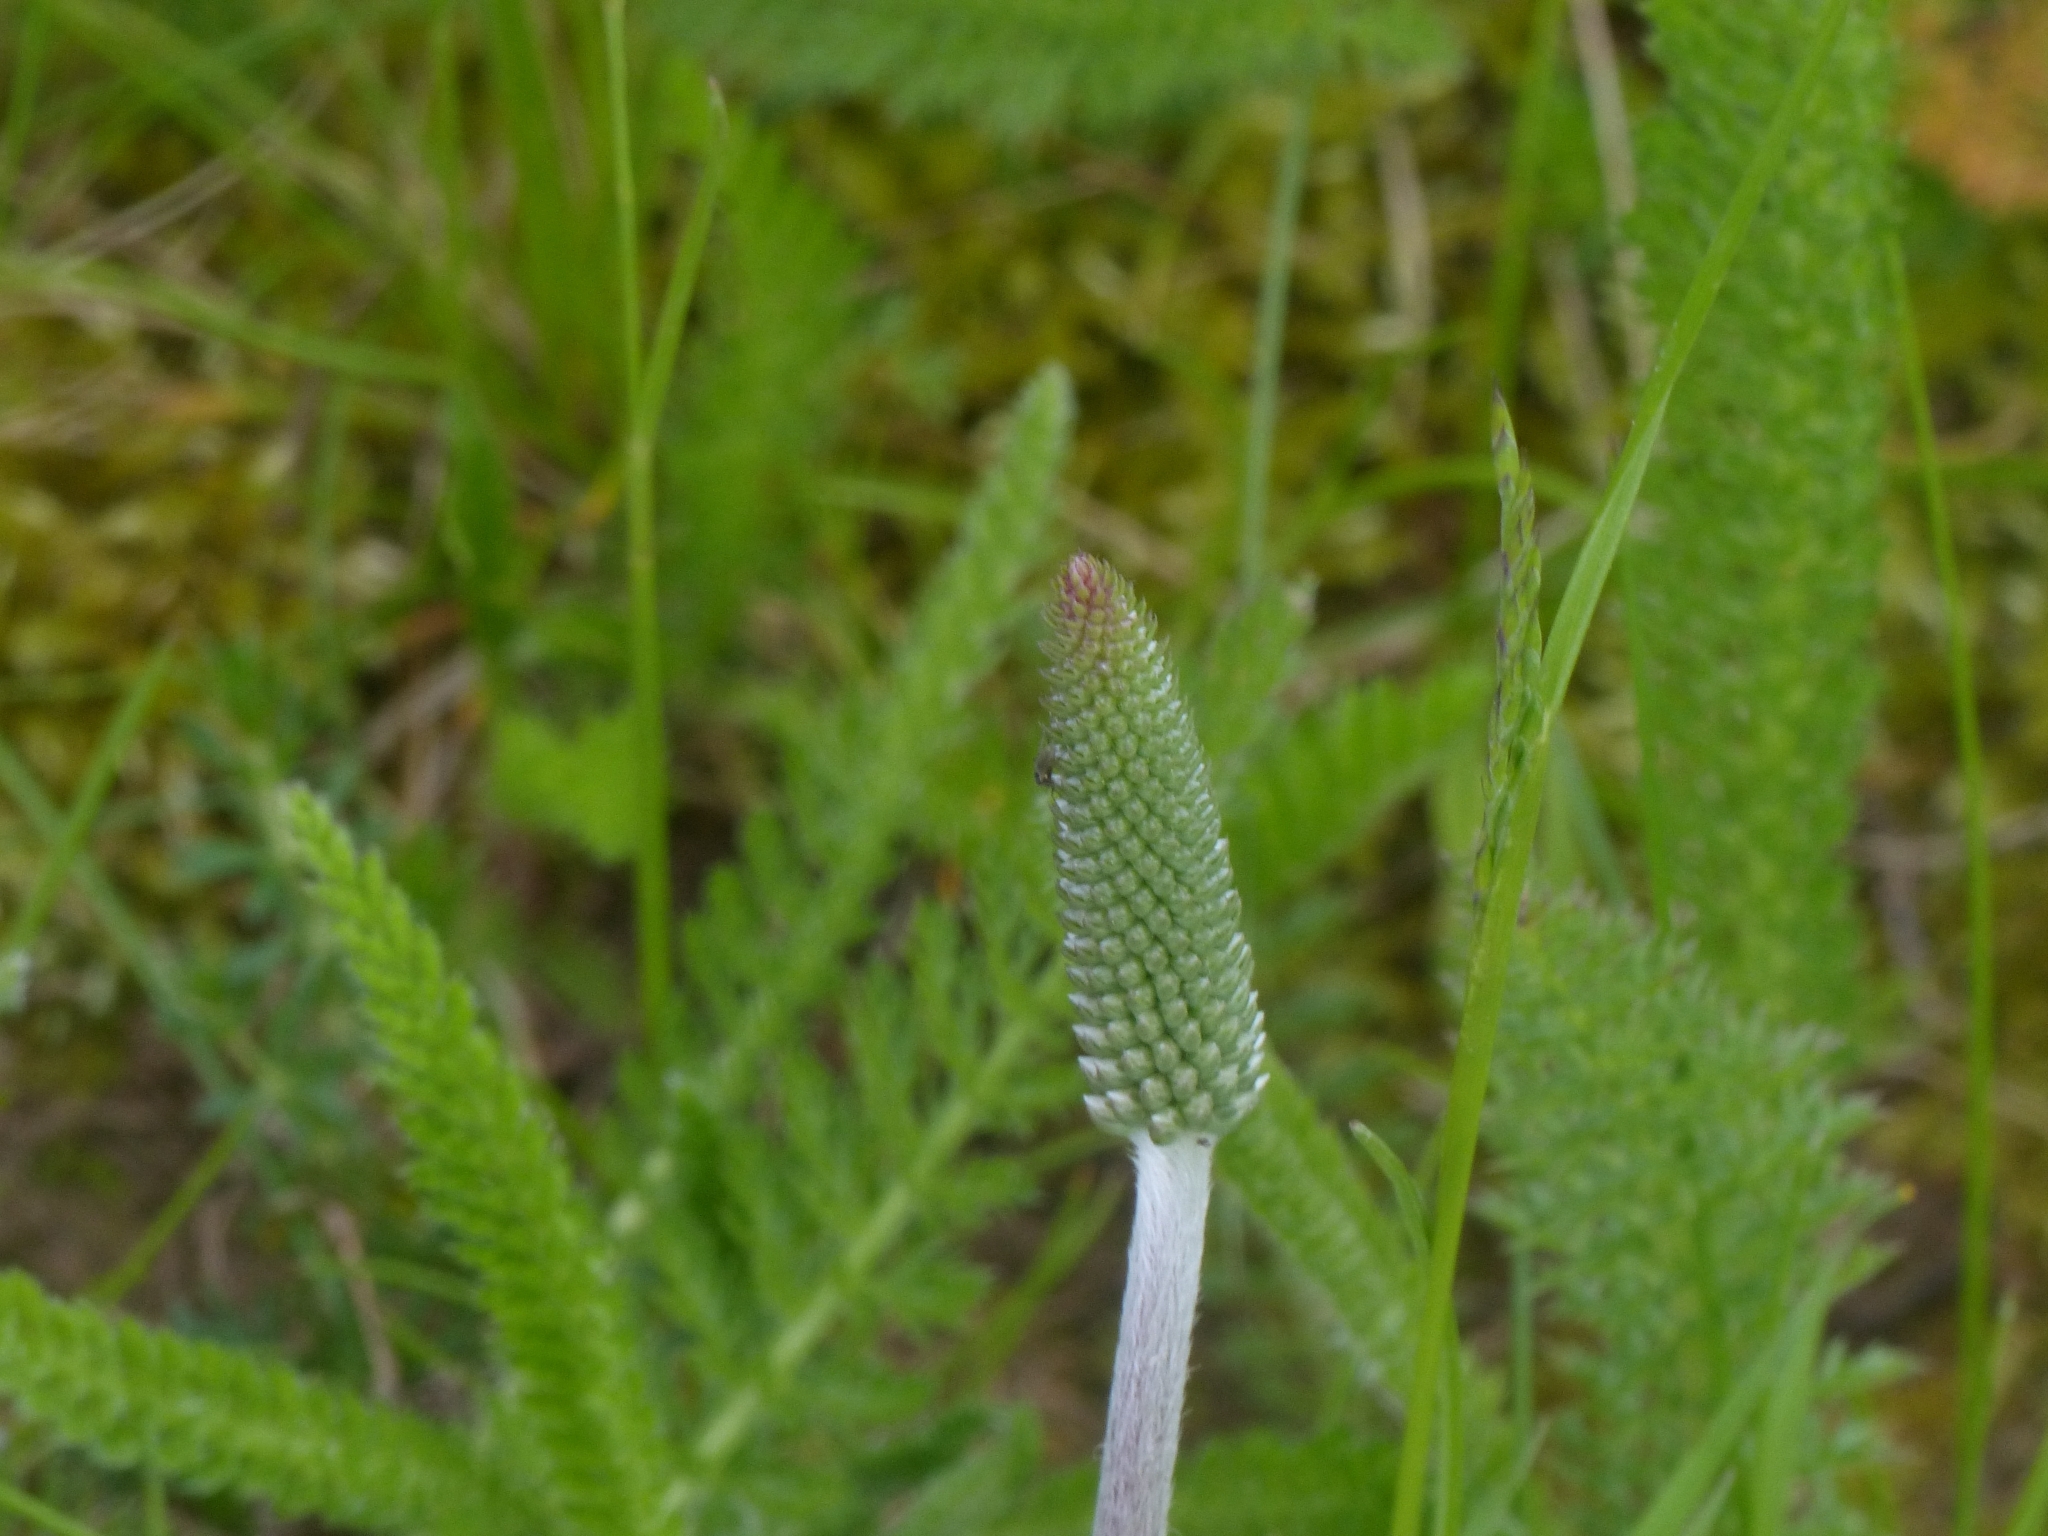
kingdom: Plantae
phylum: Tracheophyta
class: Magnoliopsida
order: Lamiales
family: Plantaginaceae
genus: Plantago
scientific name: Plantago media
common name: Hoary plantain
